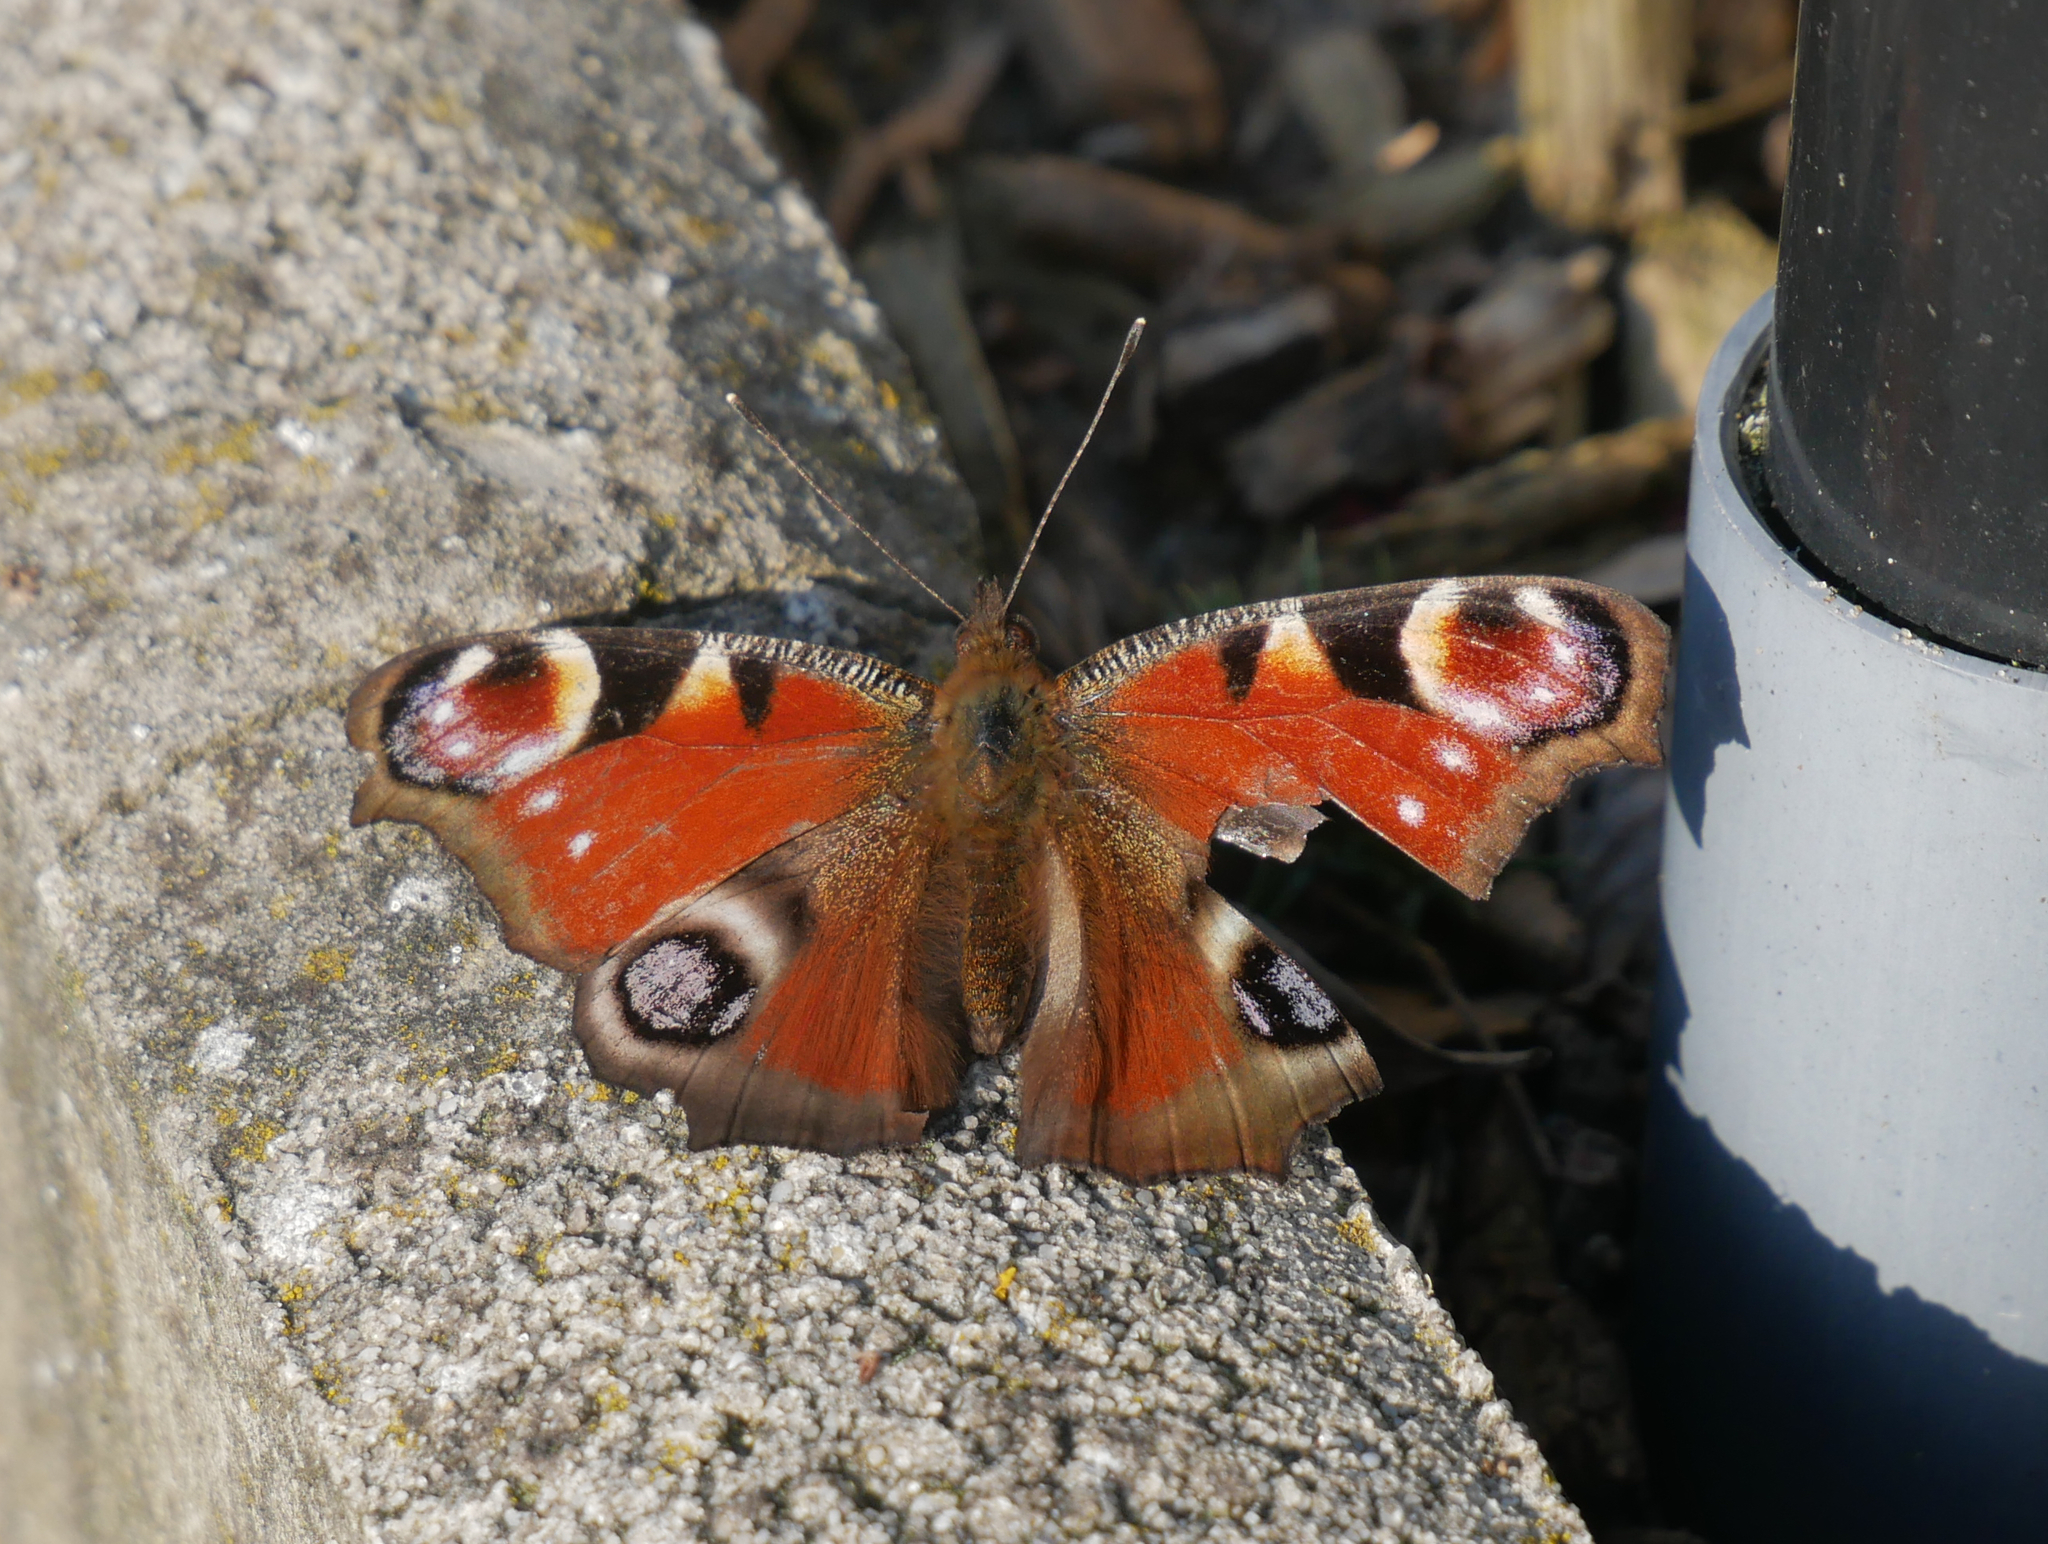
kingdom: Animalia
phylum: Arthropoda
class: Insecta
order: Lepidoptera
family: Nymphalidae
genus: Aglais
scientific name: Aglais io
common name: Peacock
